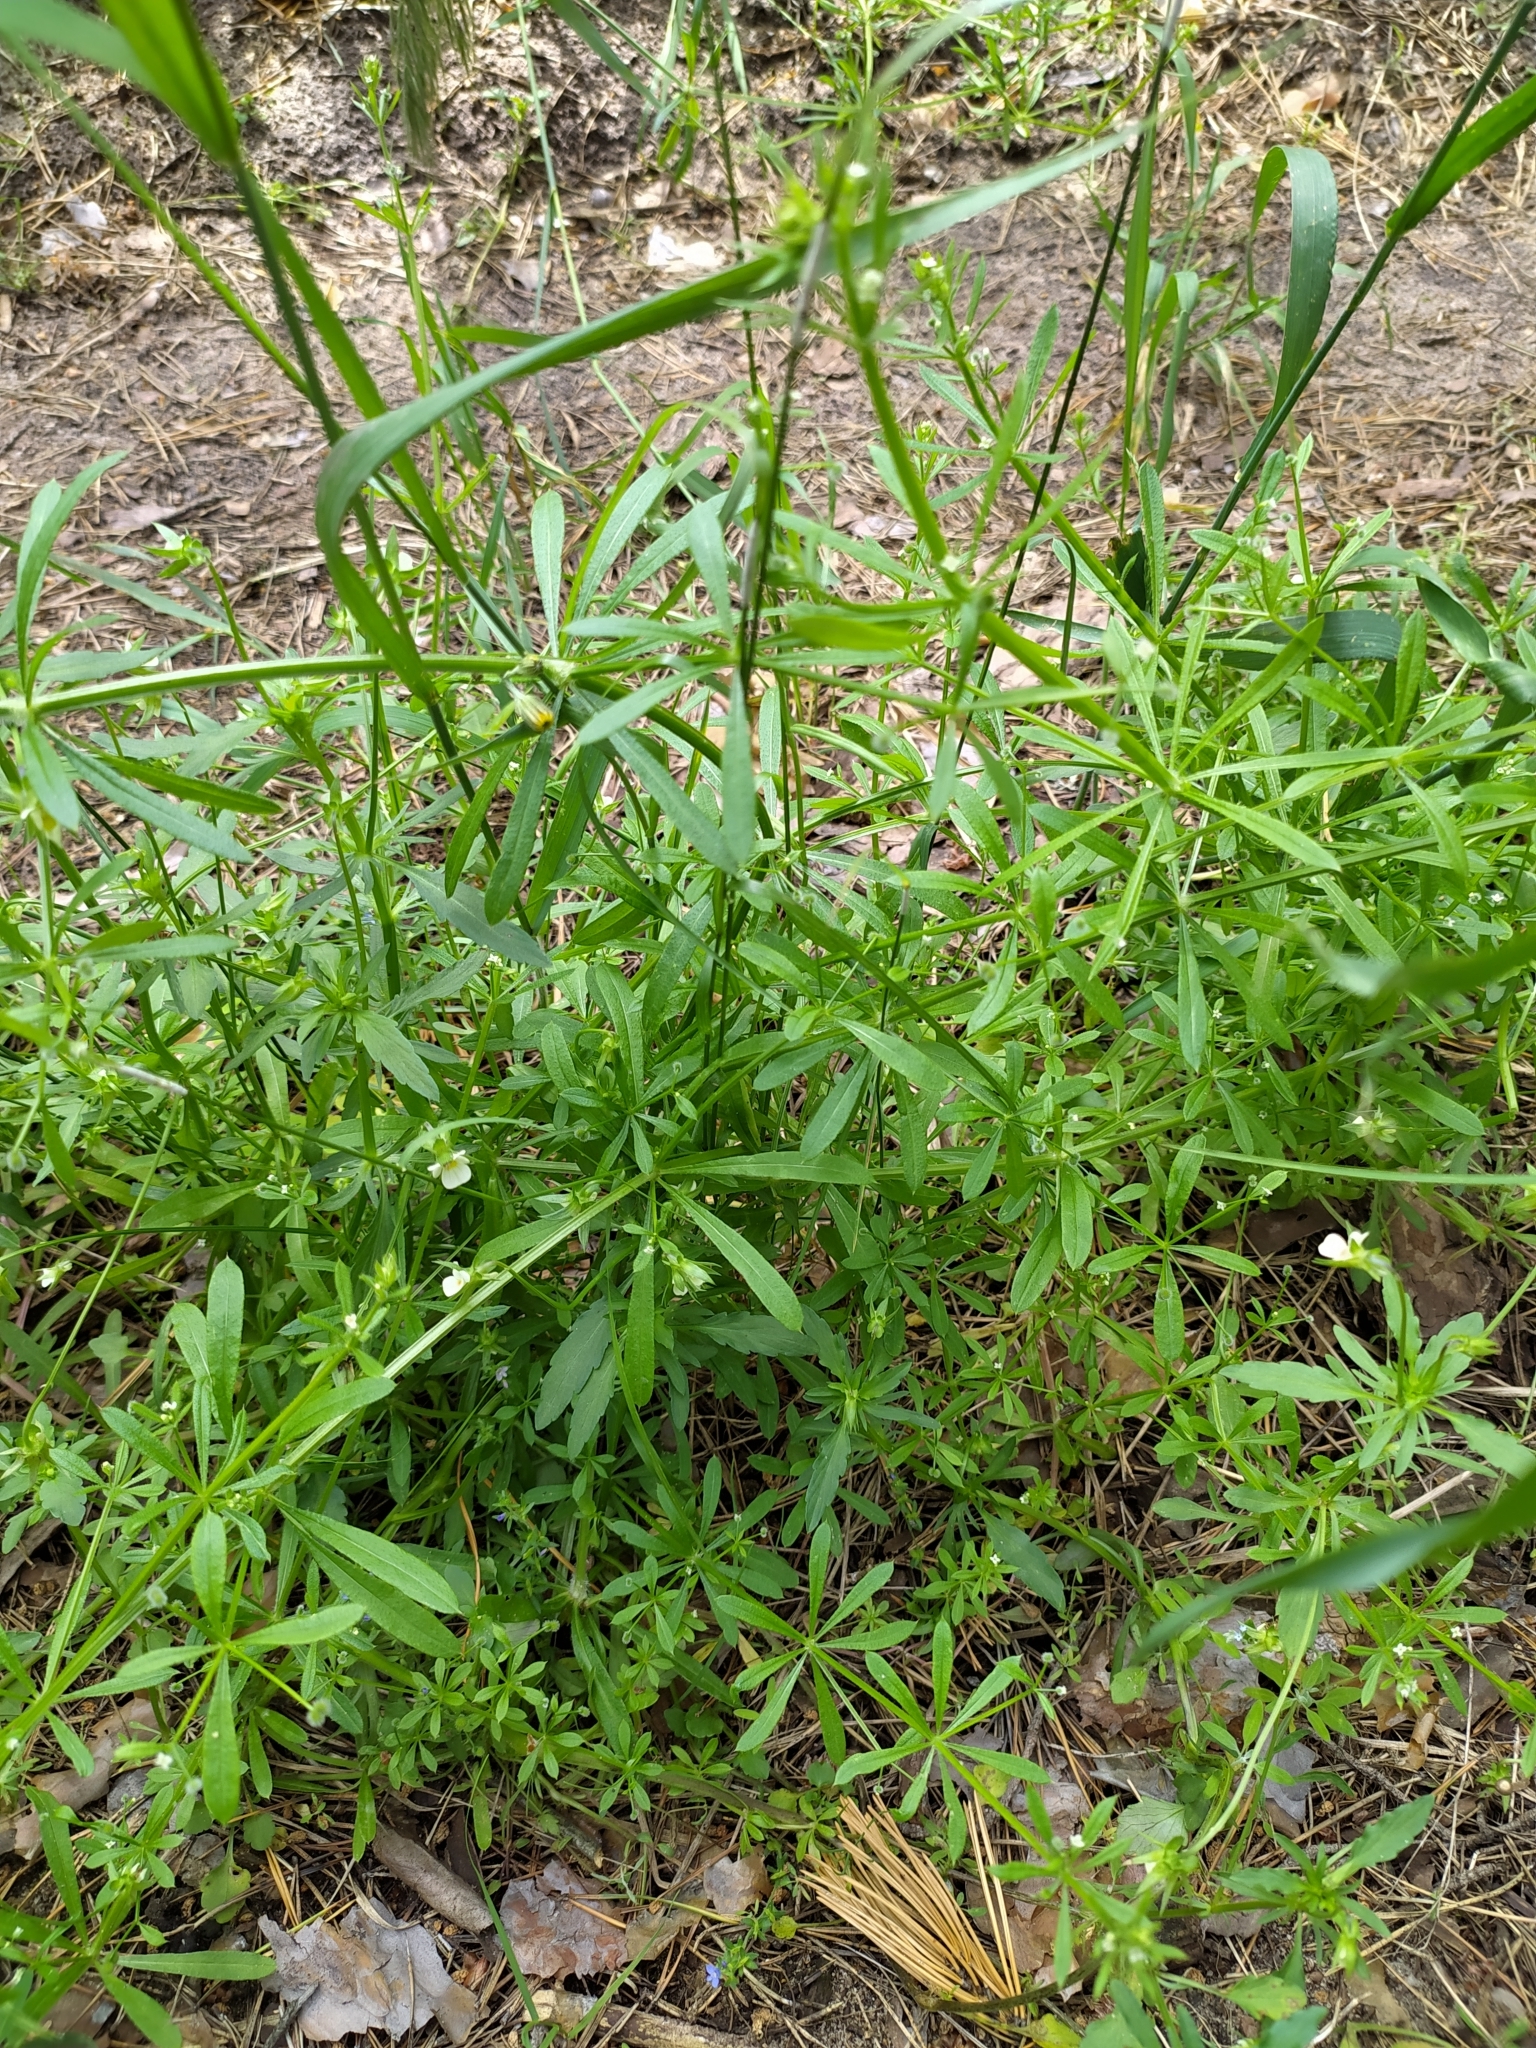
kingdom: Plantae
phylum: Tracheophyta
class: Magnoliopsida
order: Gentianales
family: Rubiaceae
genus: Galium
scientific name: Galium aparine
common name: Cleavers
